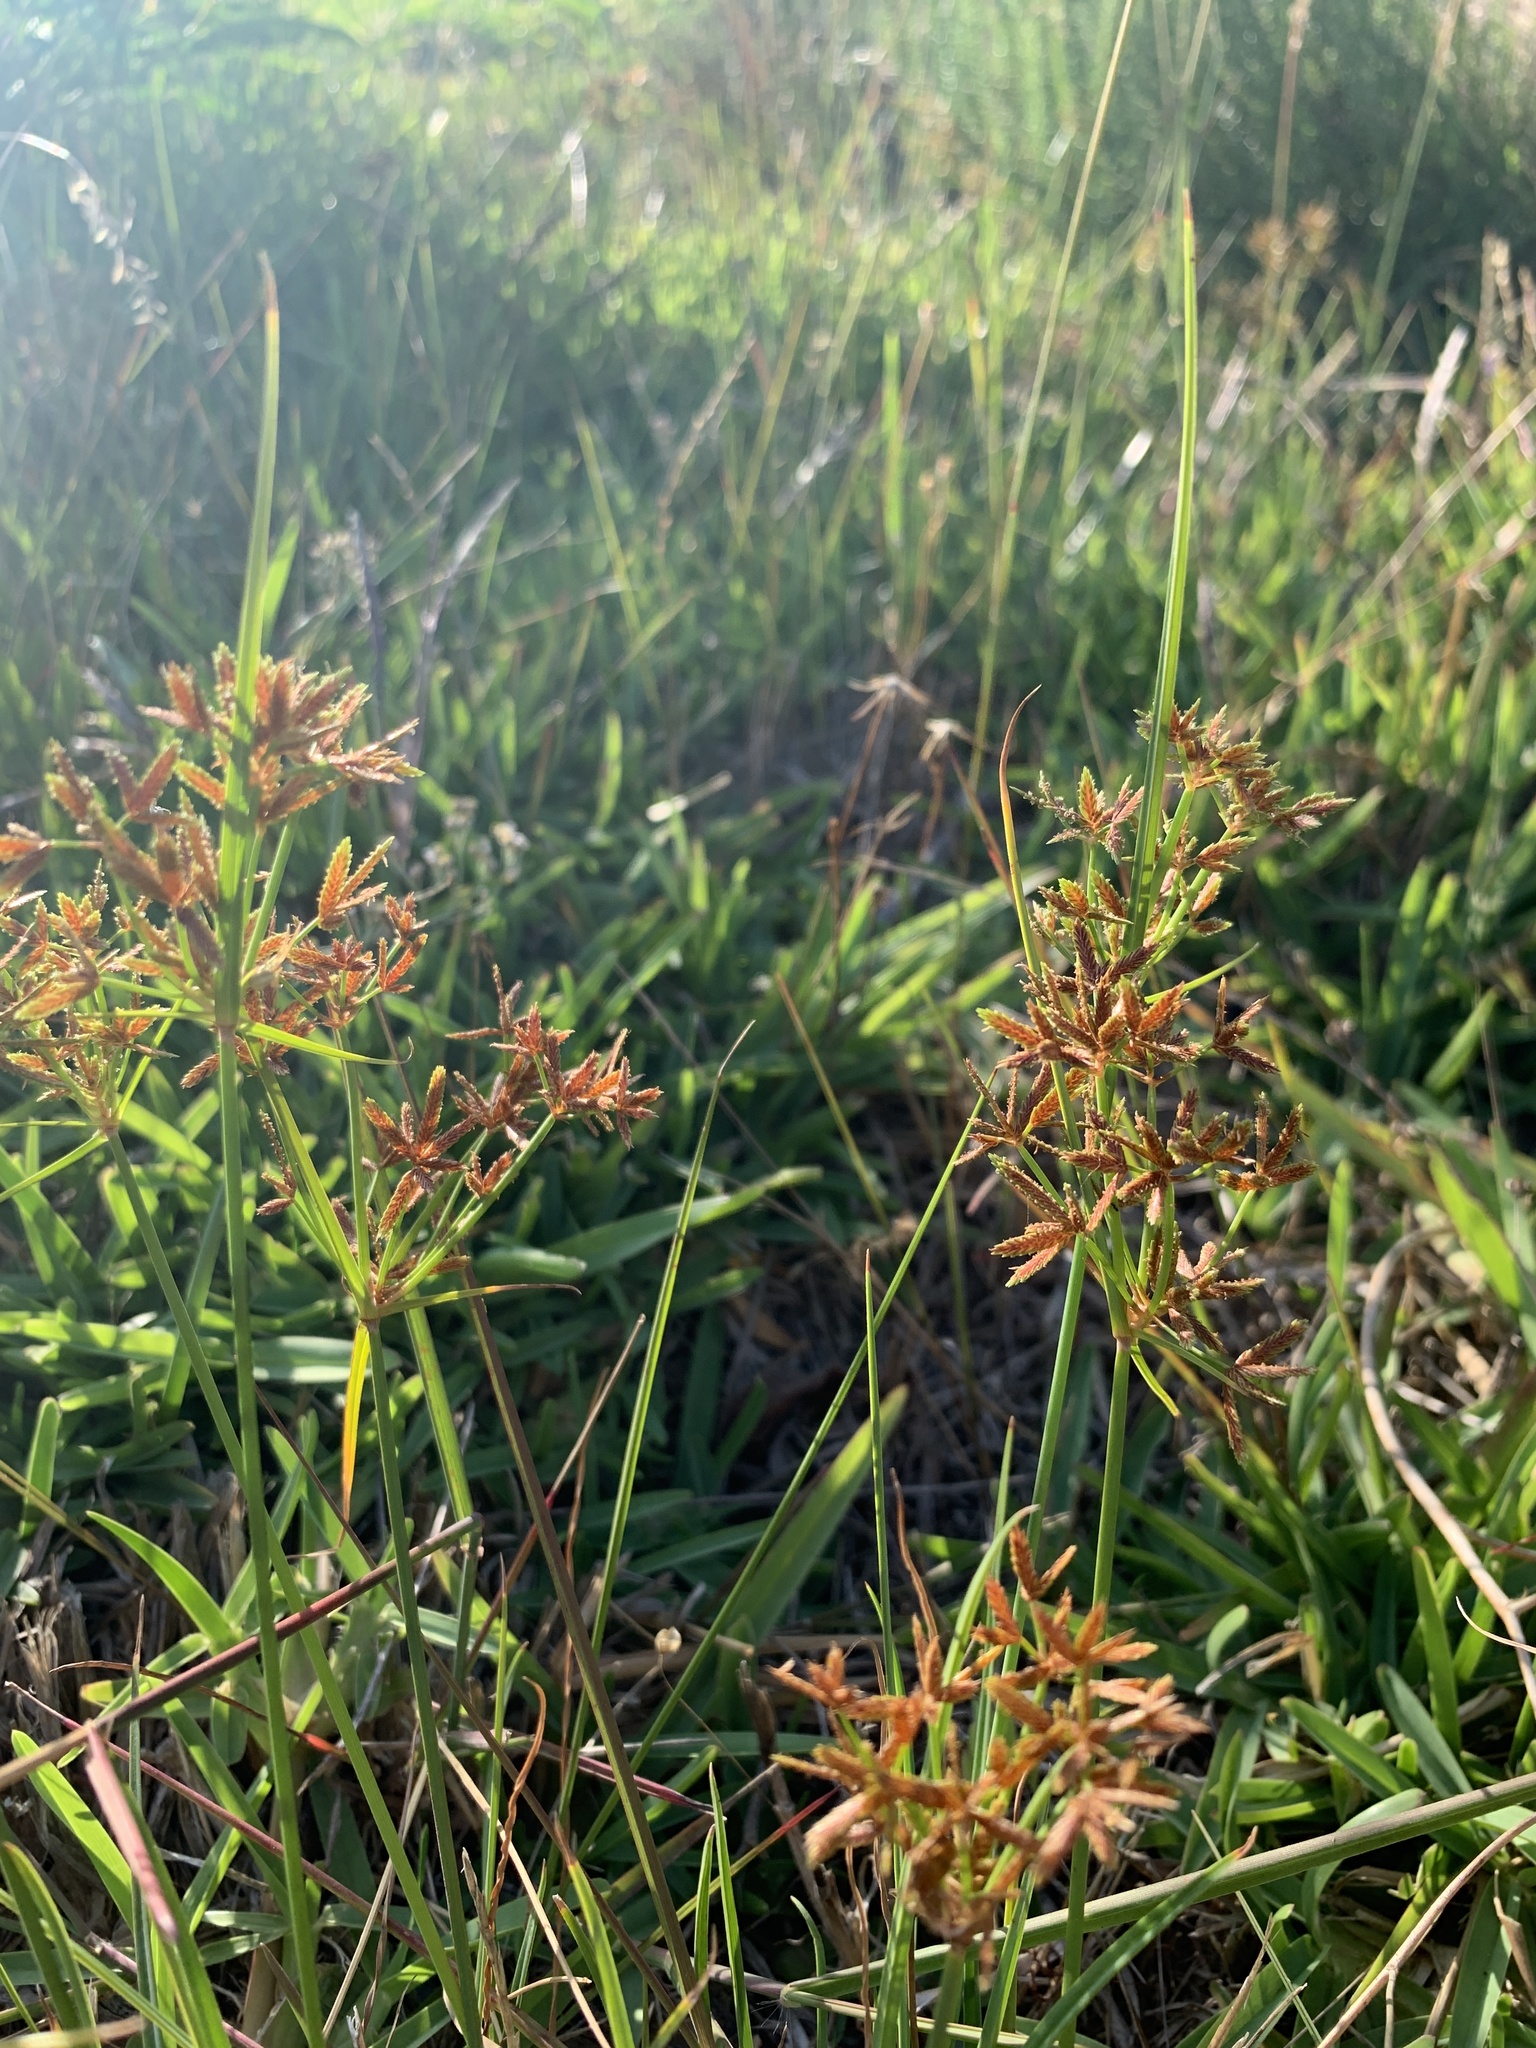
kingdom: Plantae
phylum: Tracheophyta
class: Liliopsida
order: Poales
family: Cyperaceae
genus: Cyperus
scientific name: Cyperus sphaerospermus
